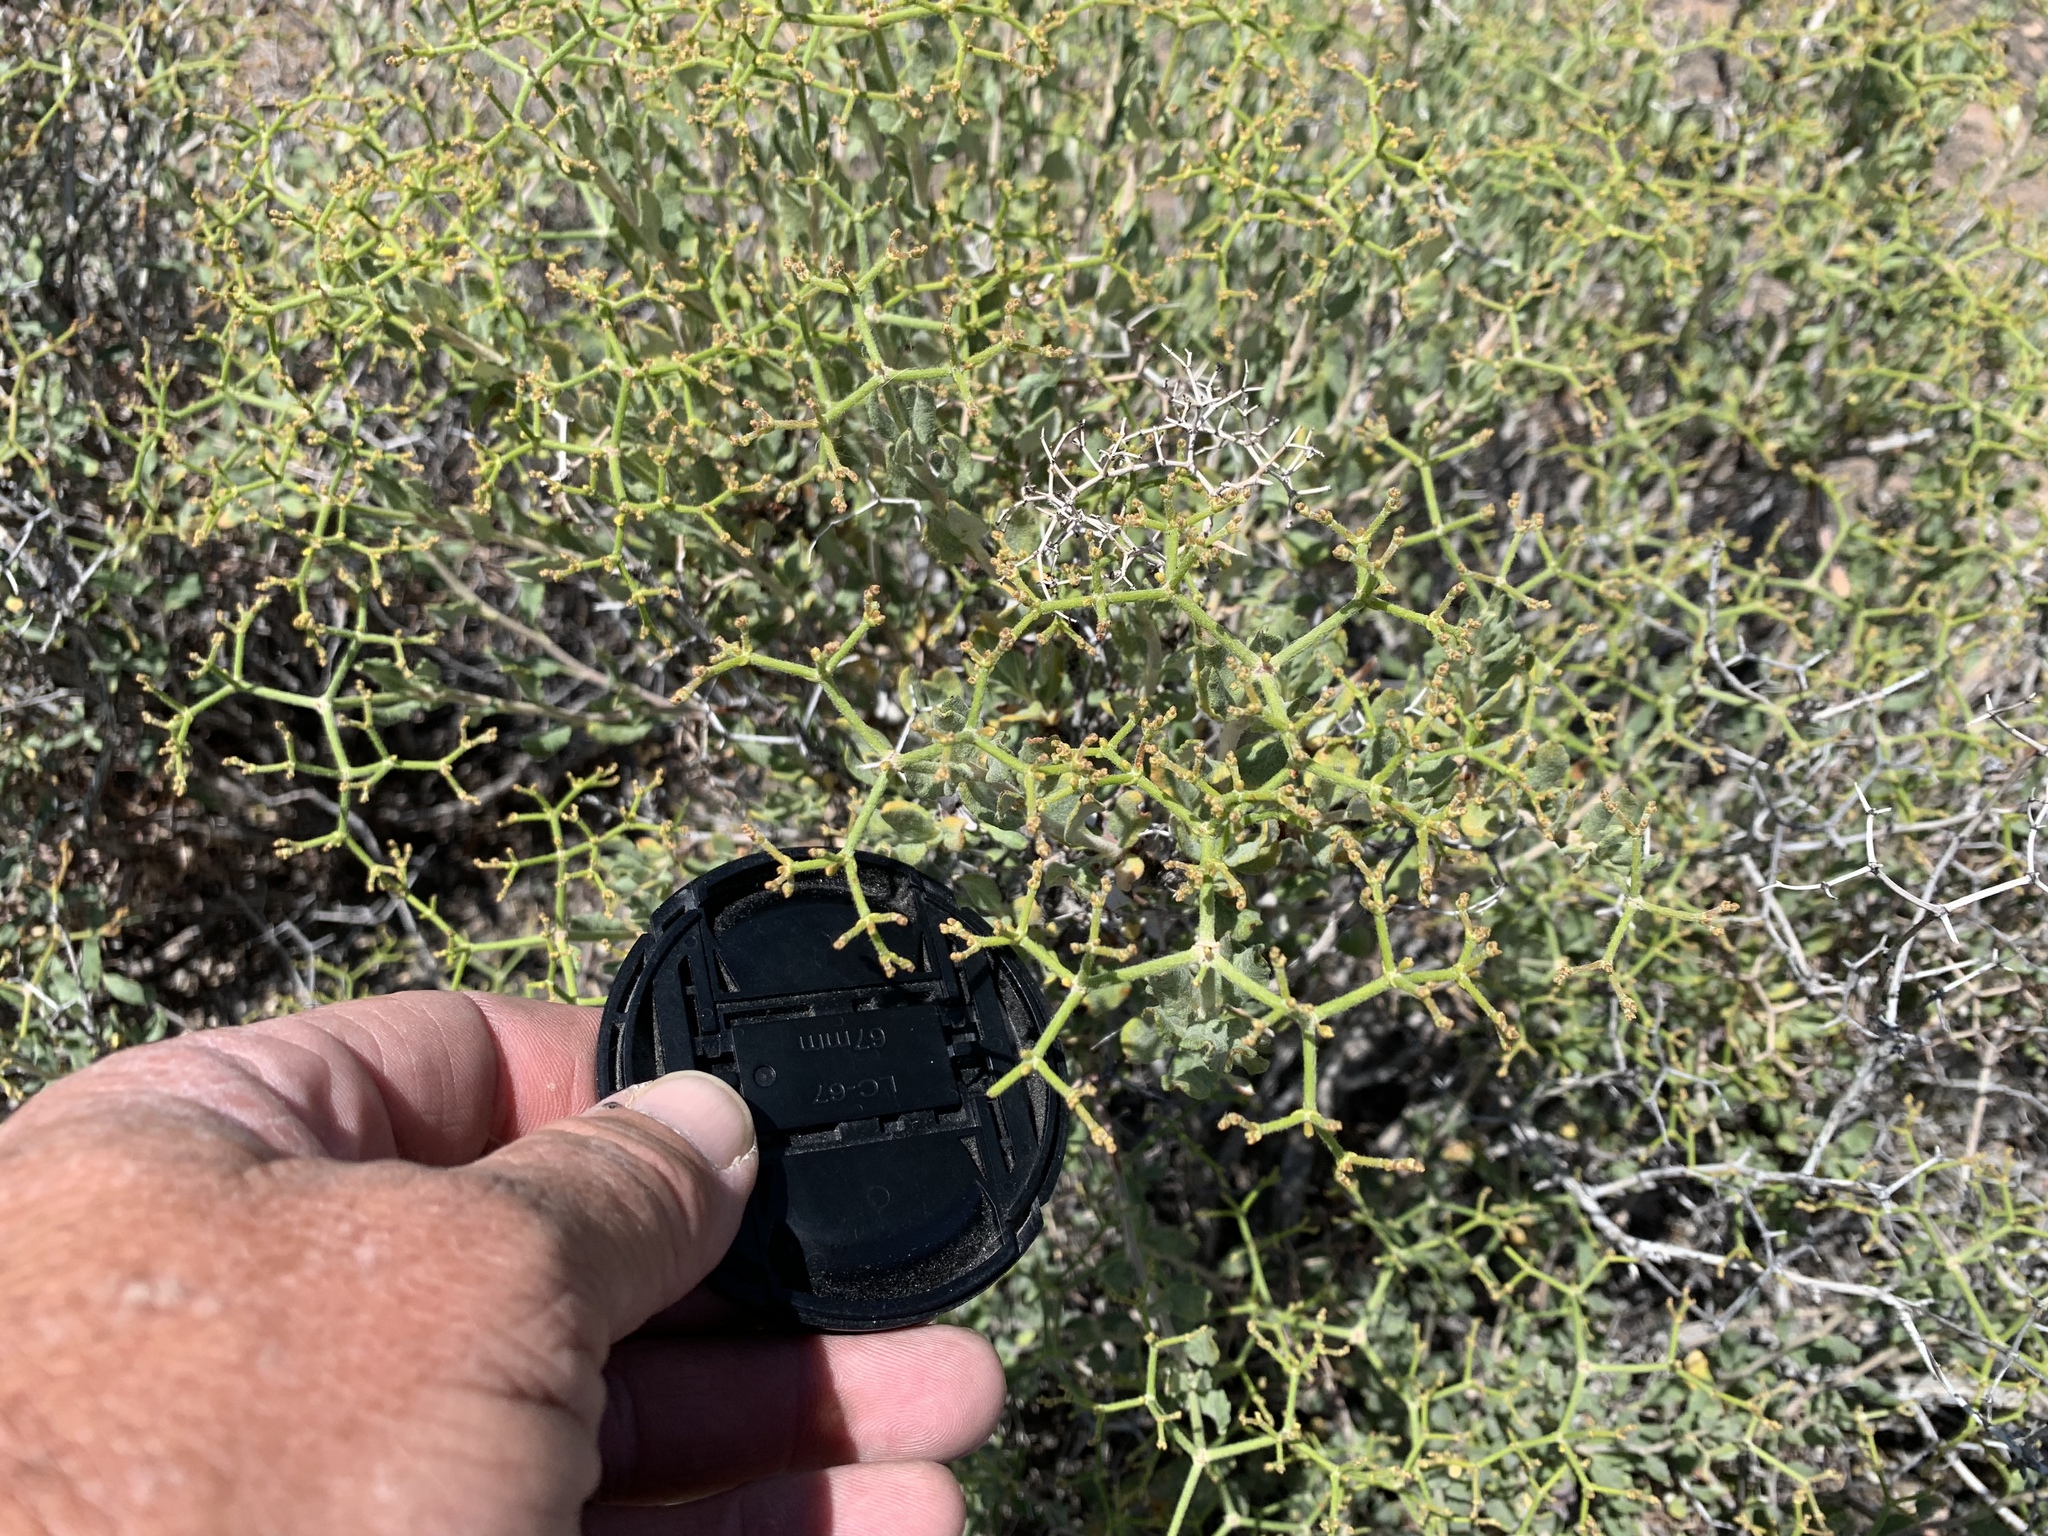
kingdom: Plantae
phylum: Tracheophyta
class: Magnoliopsida
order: Caryophyllales
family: Polygonaceae
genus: Eriogonum
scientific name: Eriogonum corymbosum
